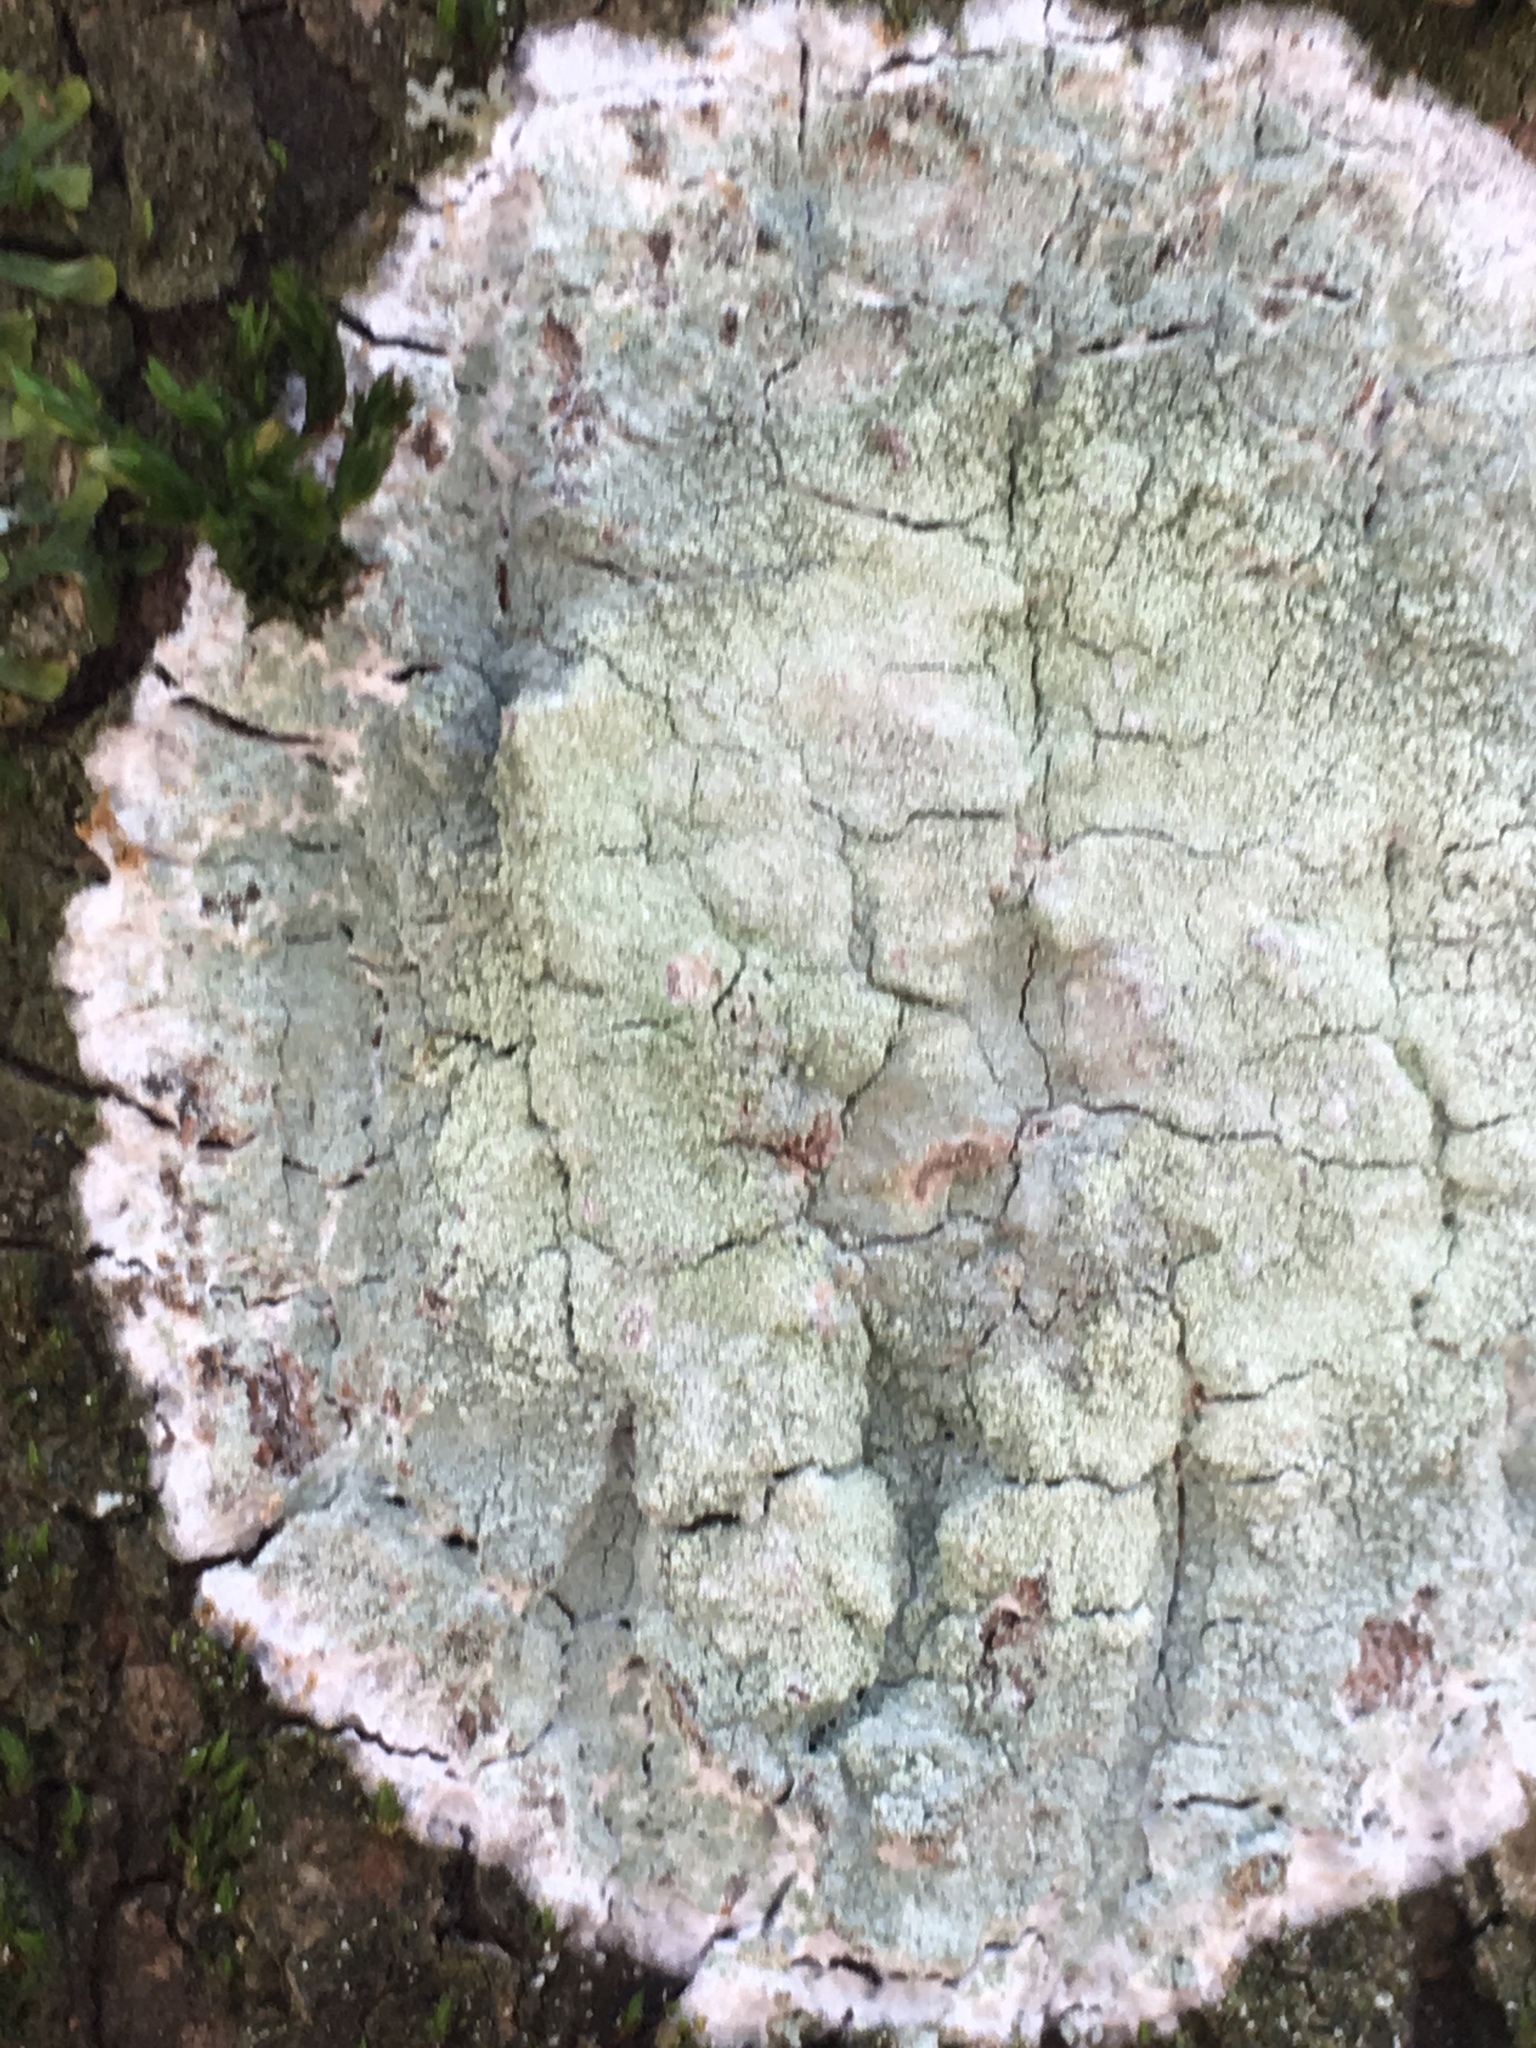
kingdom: Fungi
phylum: Ascomycota
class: Lecanoromycetes
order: Ostropales
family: Phlyctidaceae
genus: Phlyctis
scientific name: Phlyctis argena
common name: Whitewash lichen
